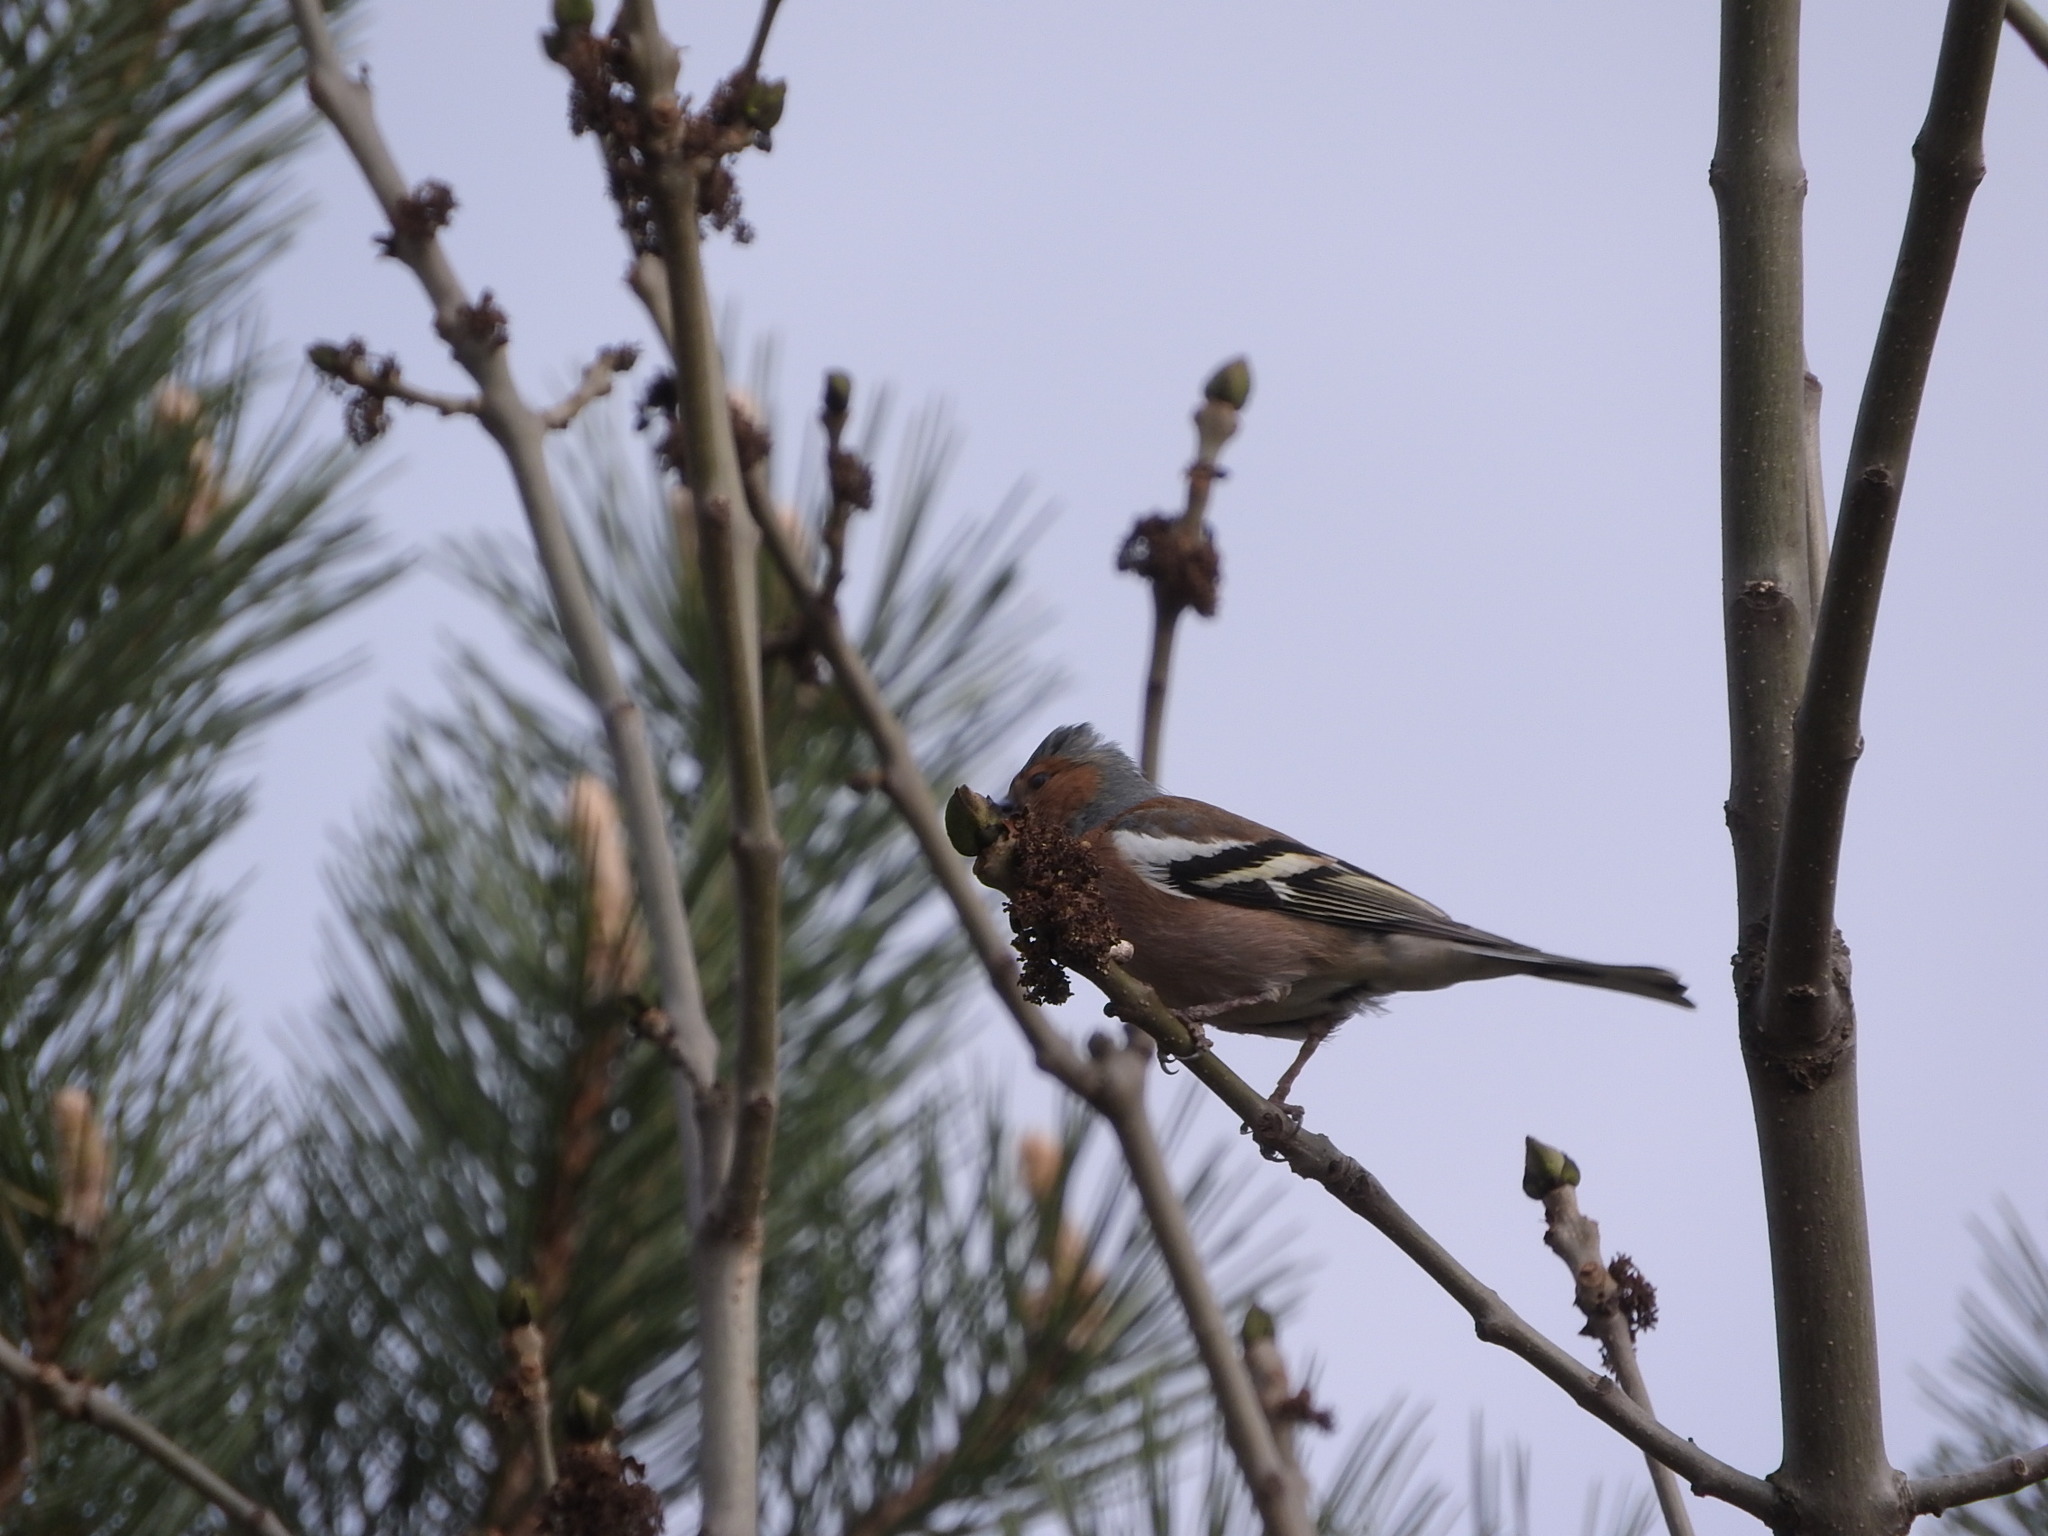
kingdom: Animalia
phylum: Chordata
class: Aves
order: Passeriformes
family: Fringillidae
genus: Fringilla
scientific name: Fringilla coelebs
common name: Common chaffinch
